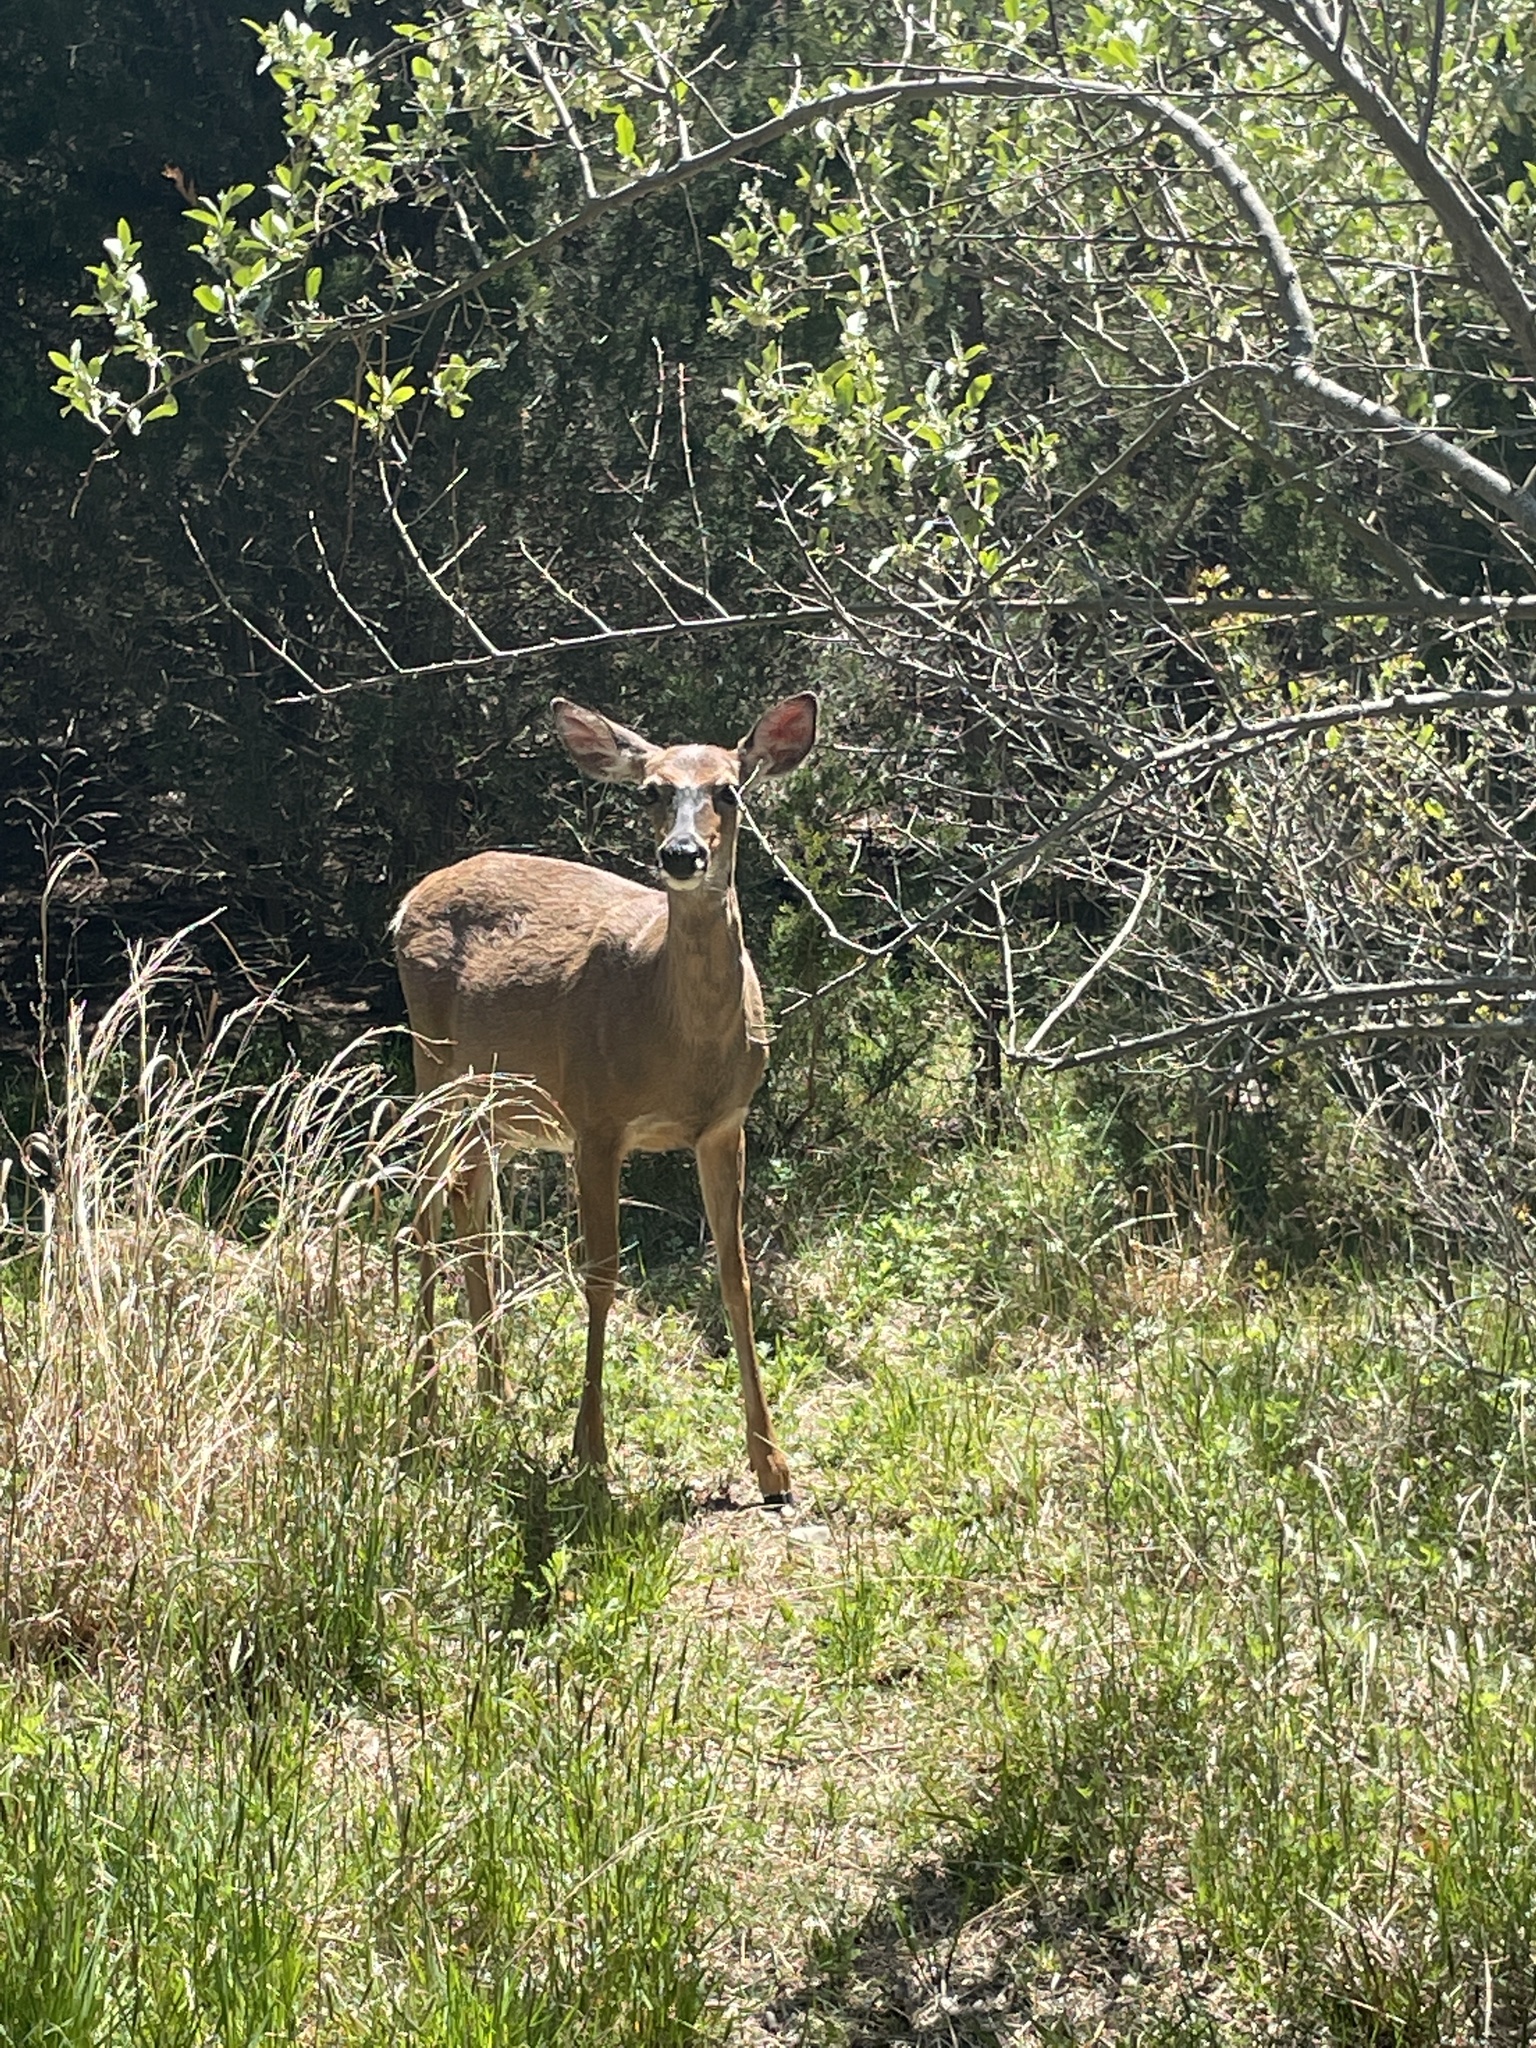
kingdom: Animalia
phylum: Chordata
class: Mammalia
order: Artiodactyla
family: Cervidae
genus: Odocoileus
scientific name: Odocoileus virginianus
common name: White-tailed deer
